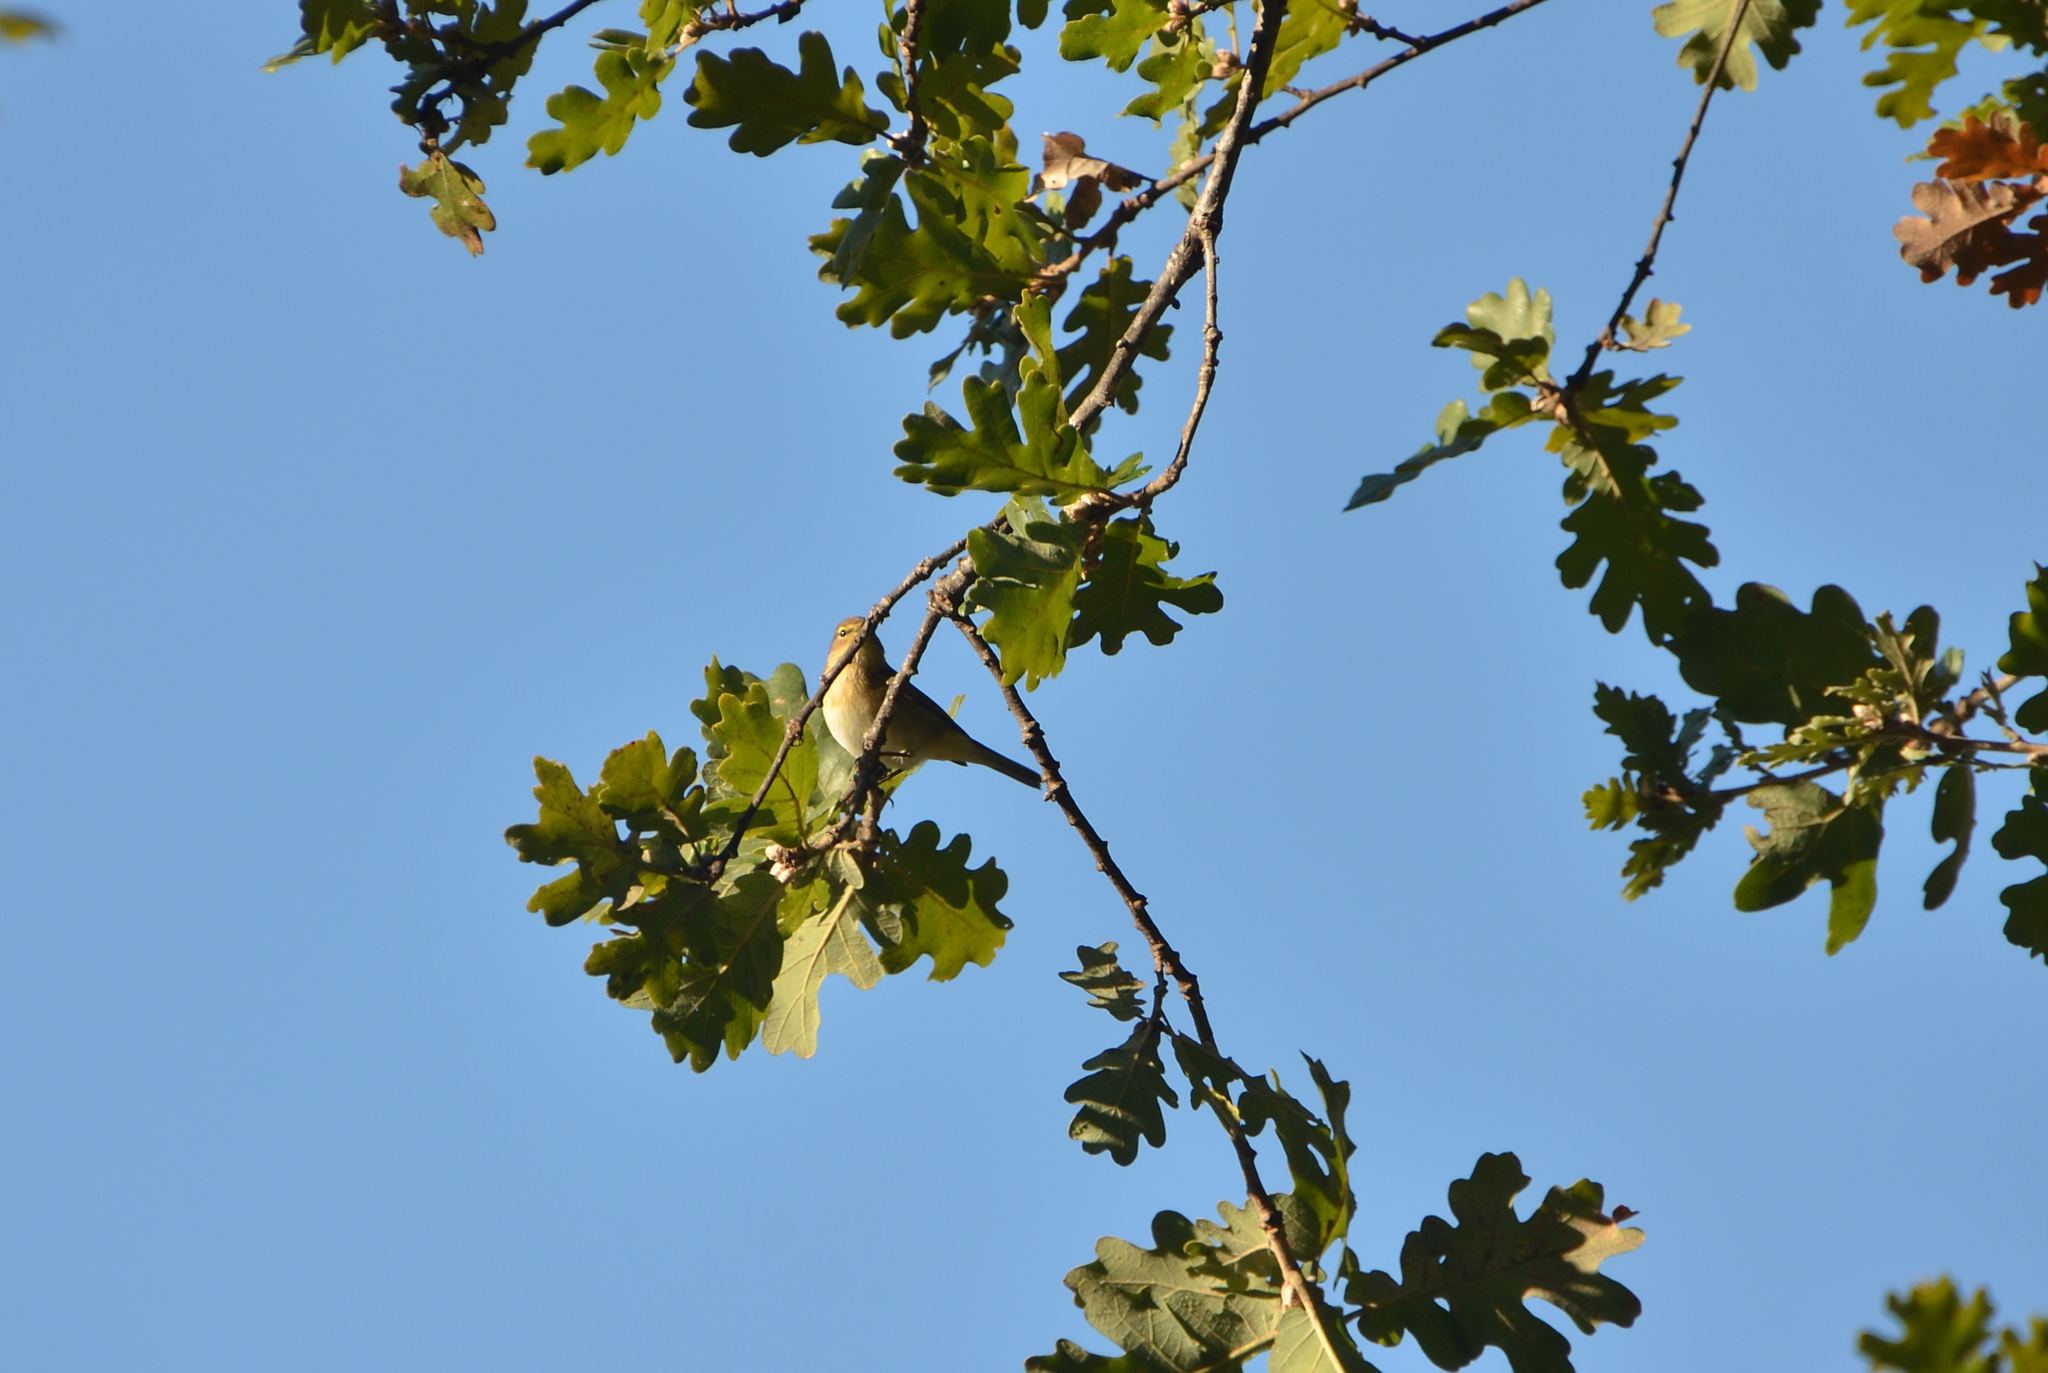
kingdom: Animalia
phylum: Chordata
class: Aves
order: Passeriformes
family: Phylloscopidae
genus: Phylloscopus
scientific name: Phylloscopus collybita
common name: Common chiffchaff
